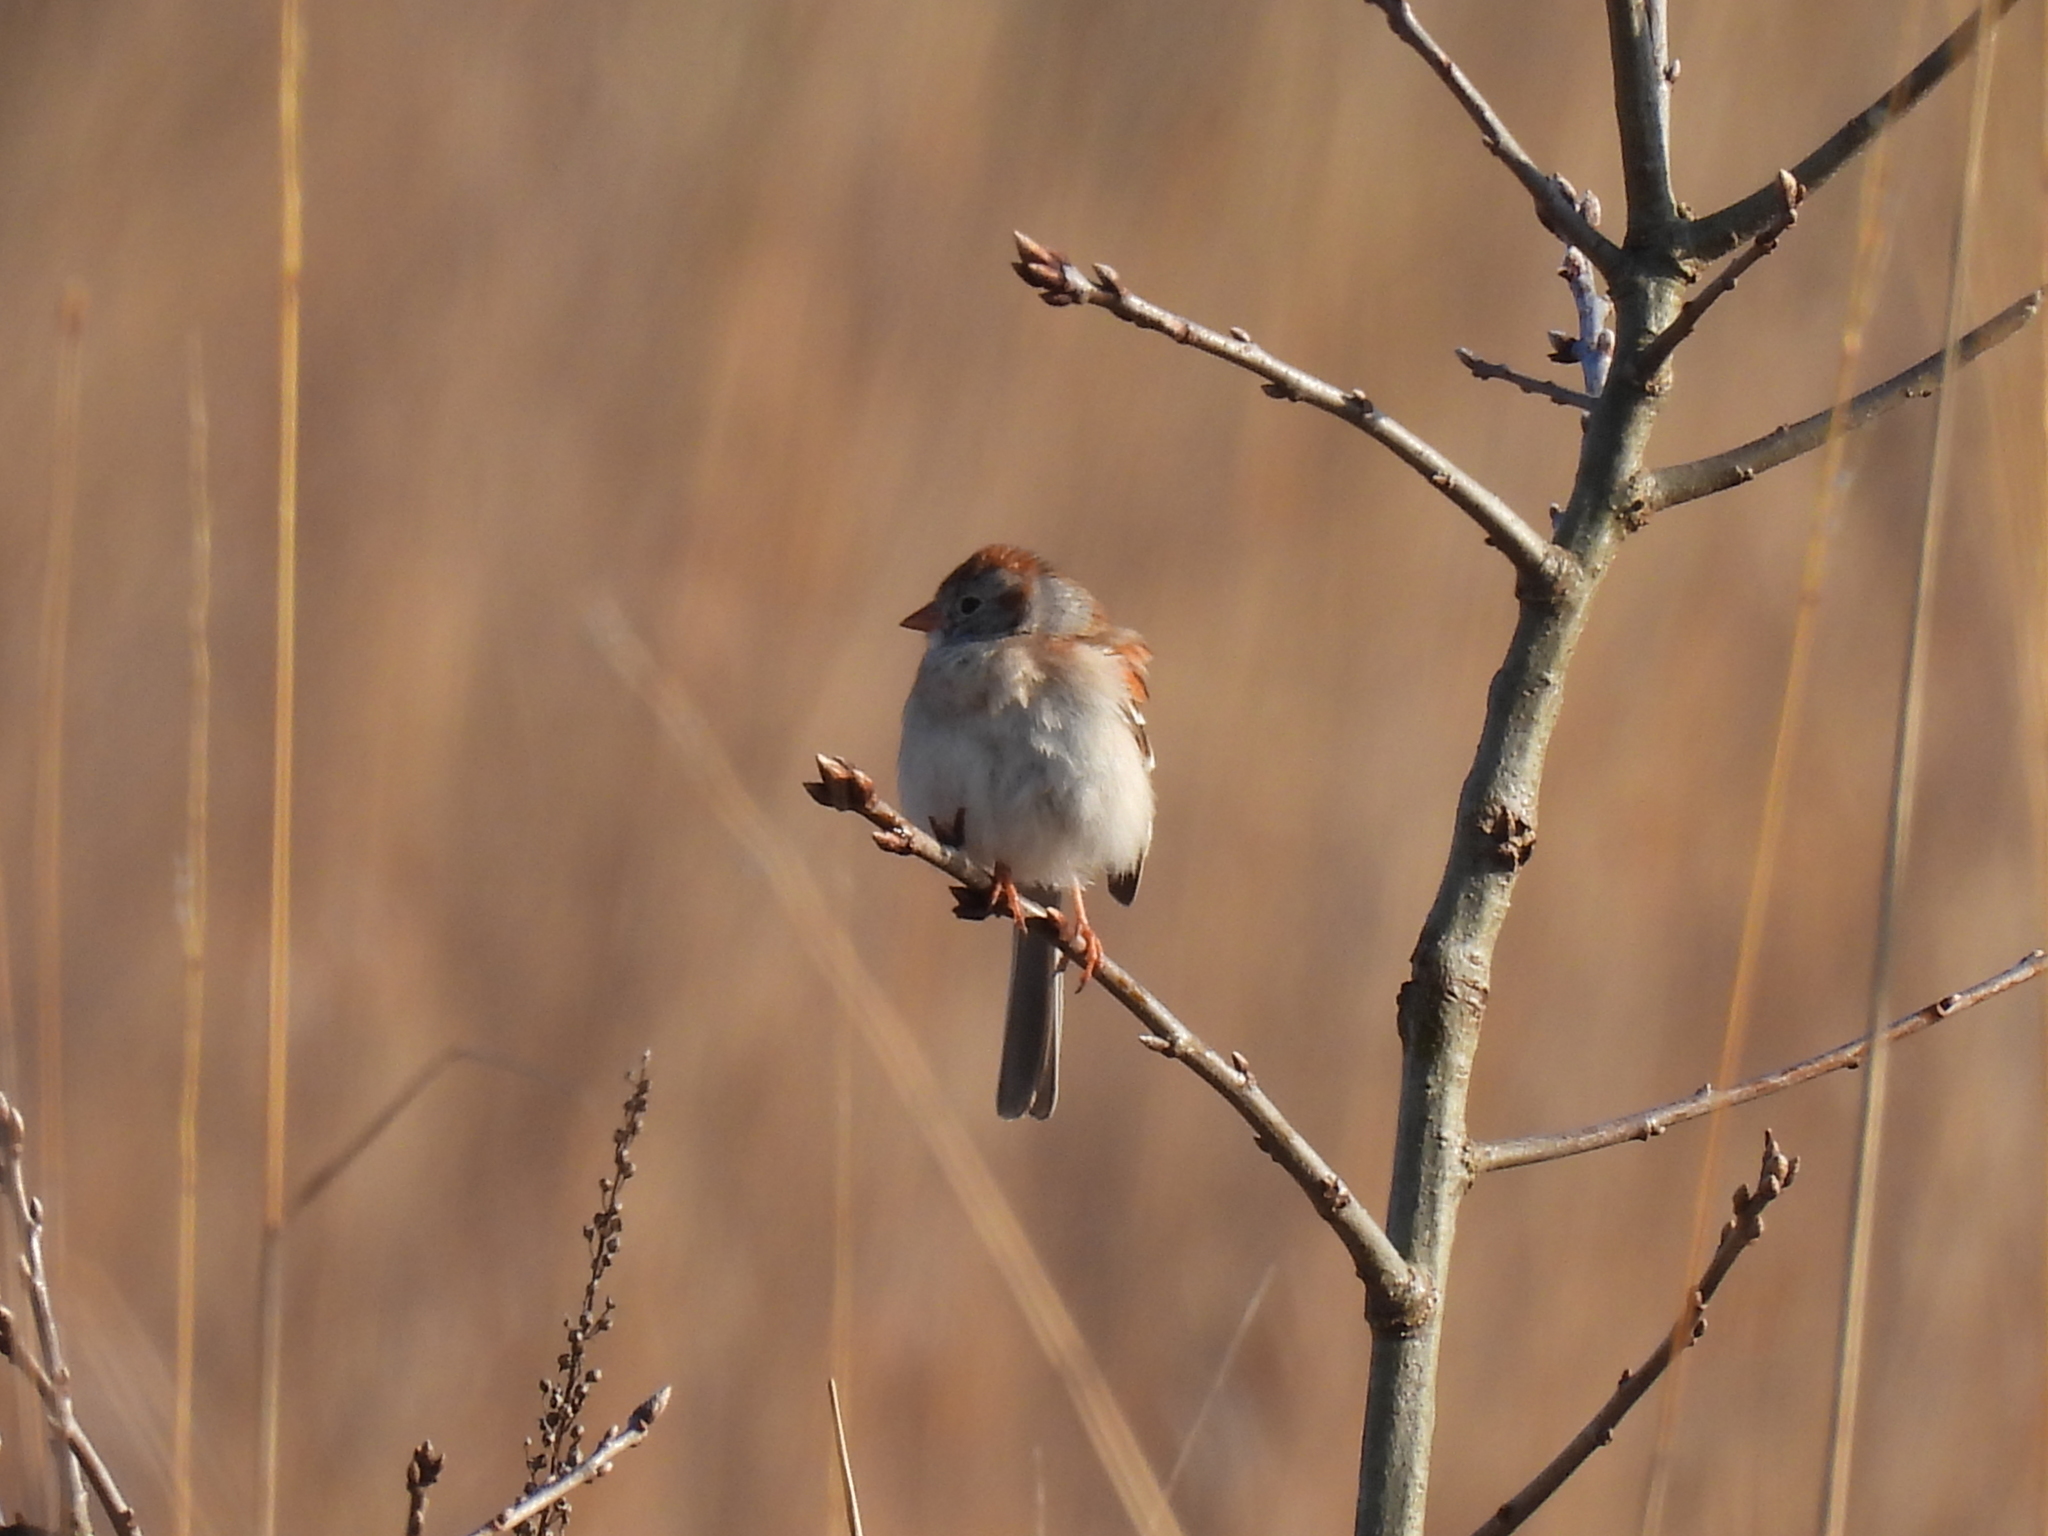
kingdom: Animalia
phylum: Chordata
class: Aves
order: Passeriformes
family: Passerellidae
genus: Spizella
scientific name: Spizella pusilla
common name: Field sparrow
